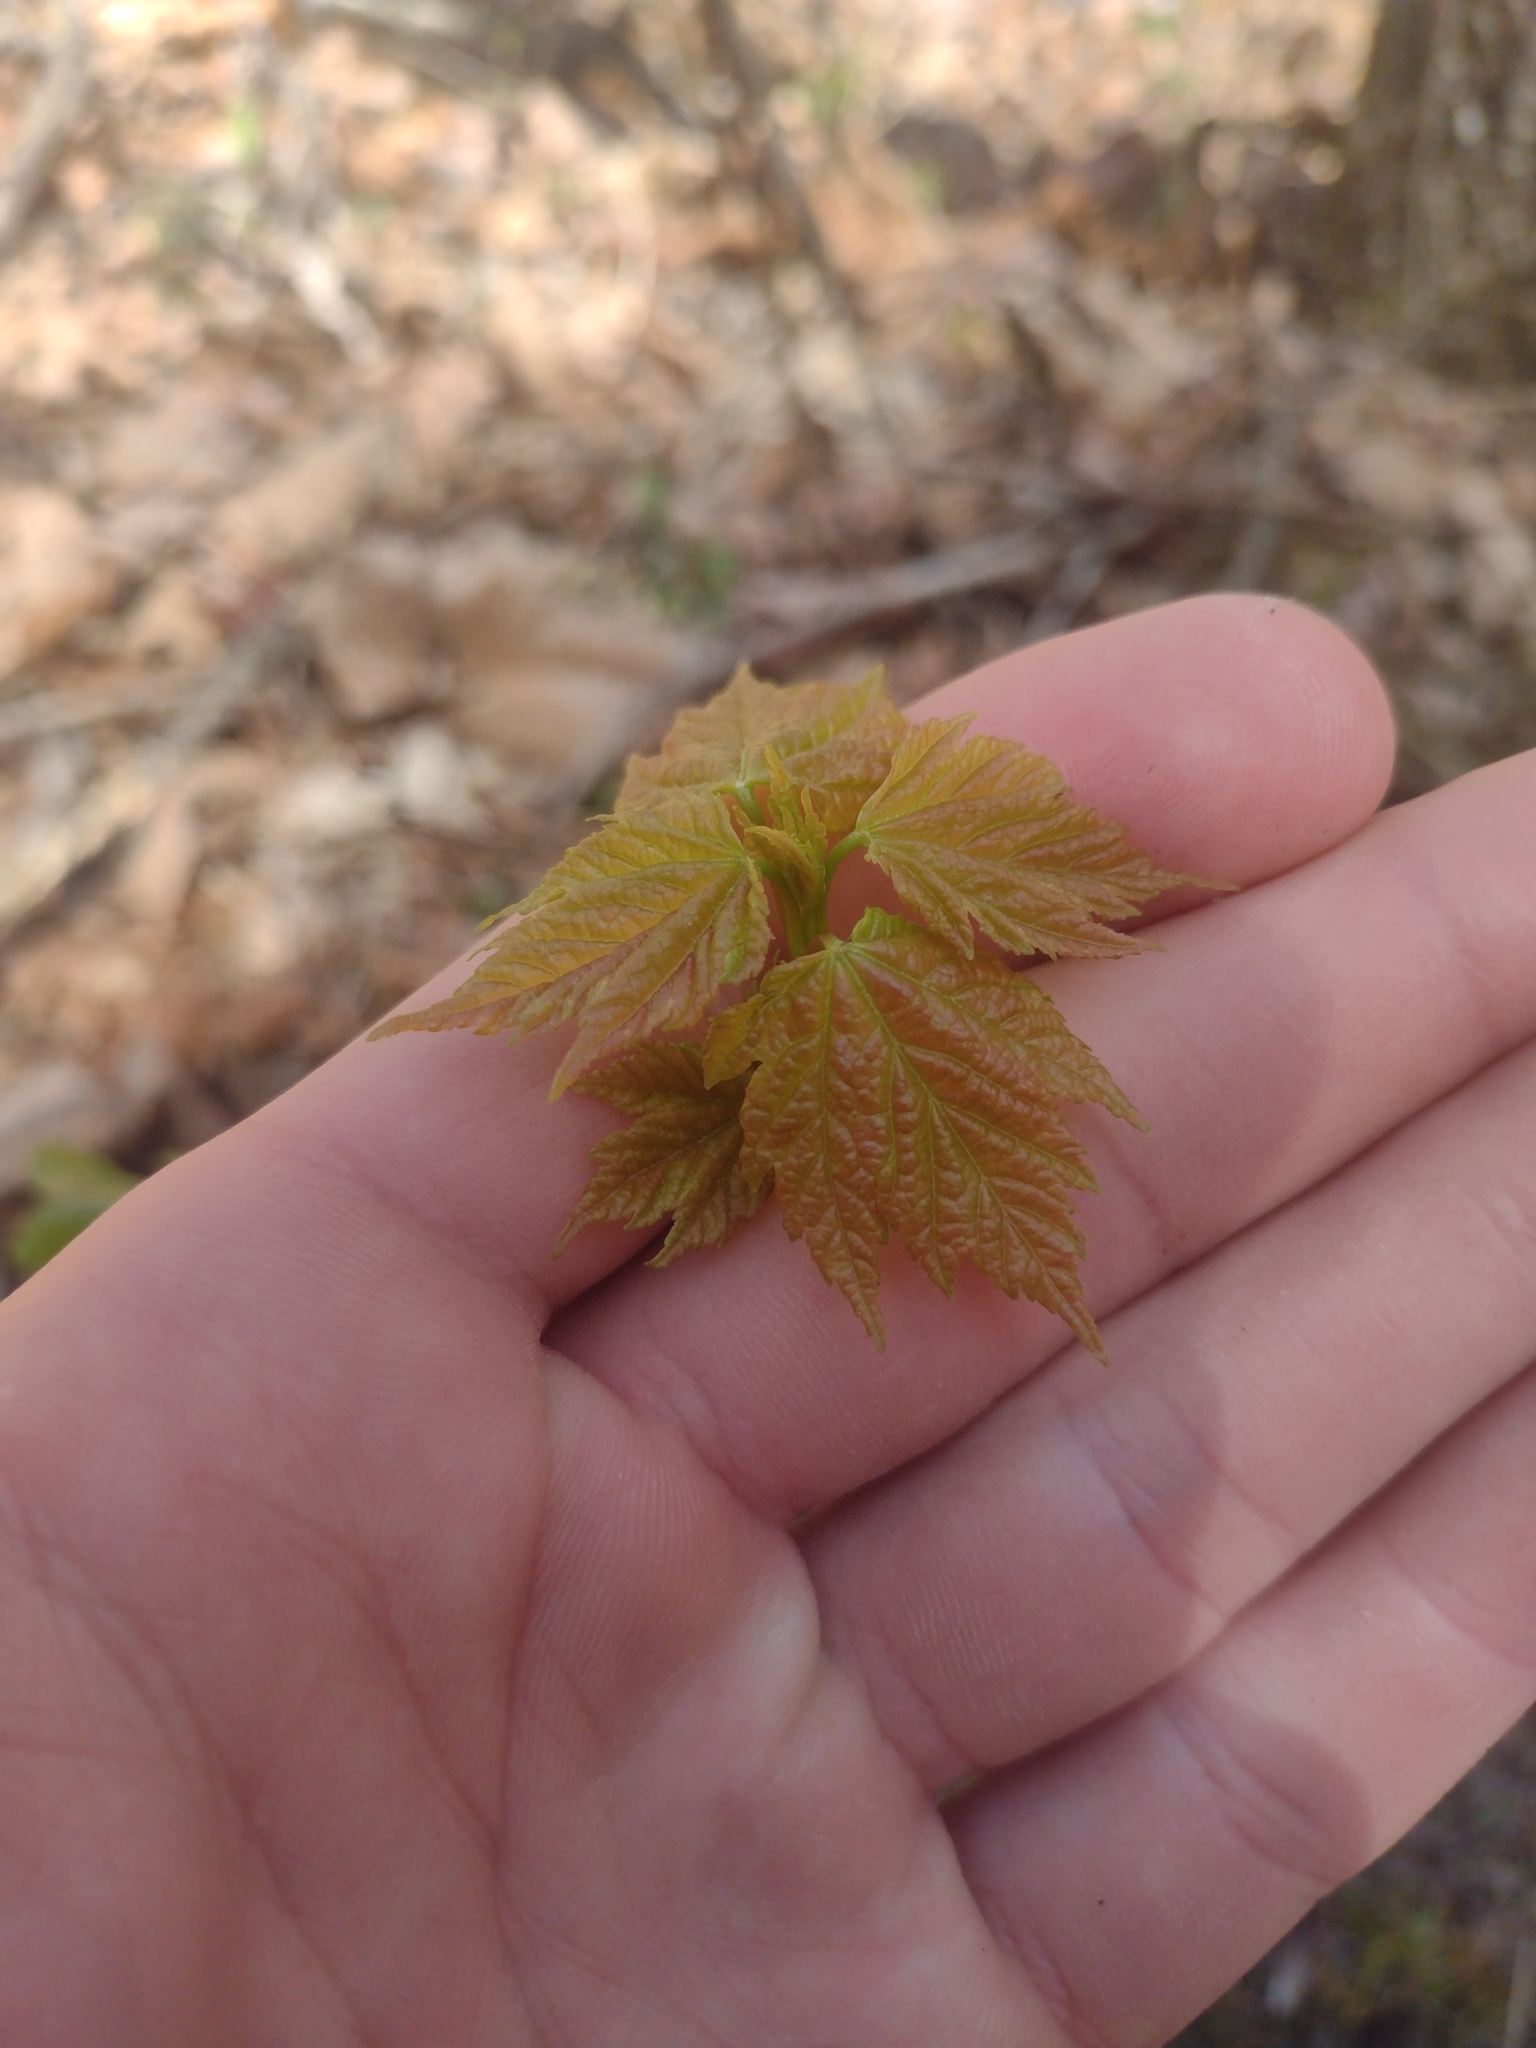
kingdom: Plantae
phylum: Tracheophyta
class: Magnoliopsida
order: Sapindales
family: Sapindaceae
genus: Acer
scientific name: Acer rubrum
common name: Red maple
